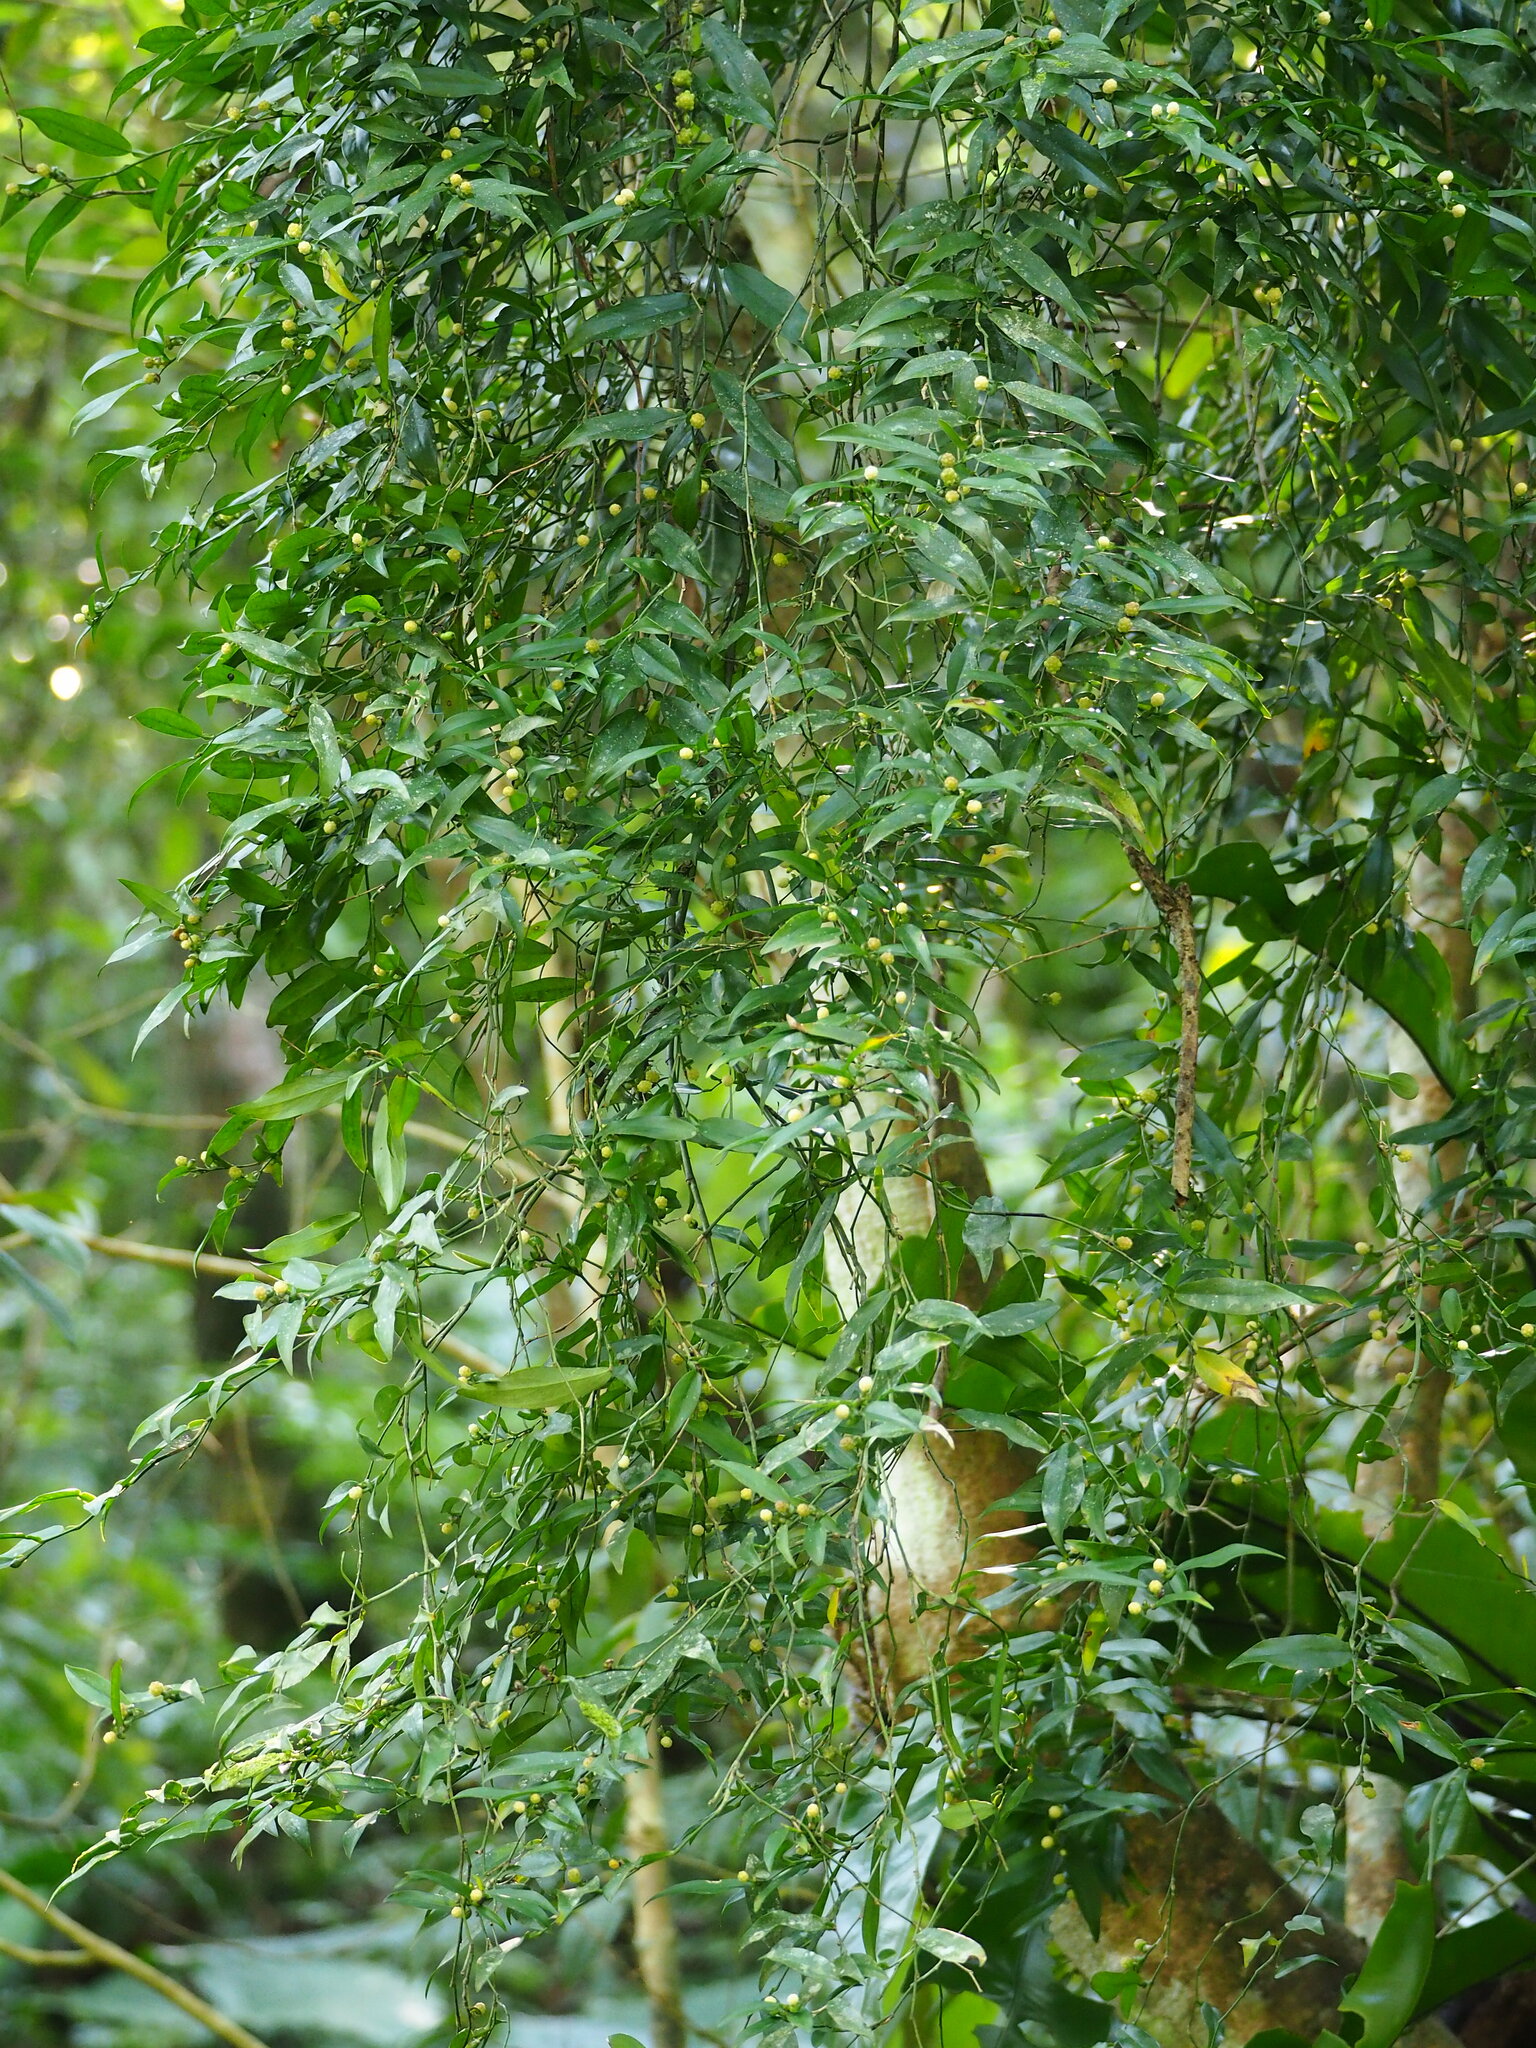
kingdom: Plantae
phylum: Tracheophyta
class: Liliopsida
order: Alismatales
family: Araceae
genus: Pothos
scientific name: Pothos chinensis
